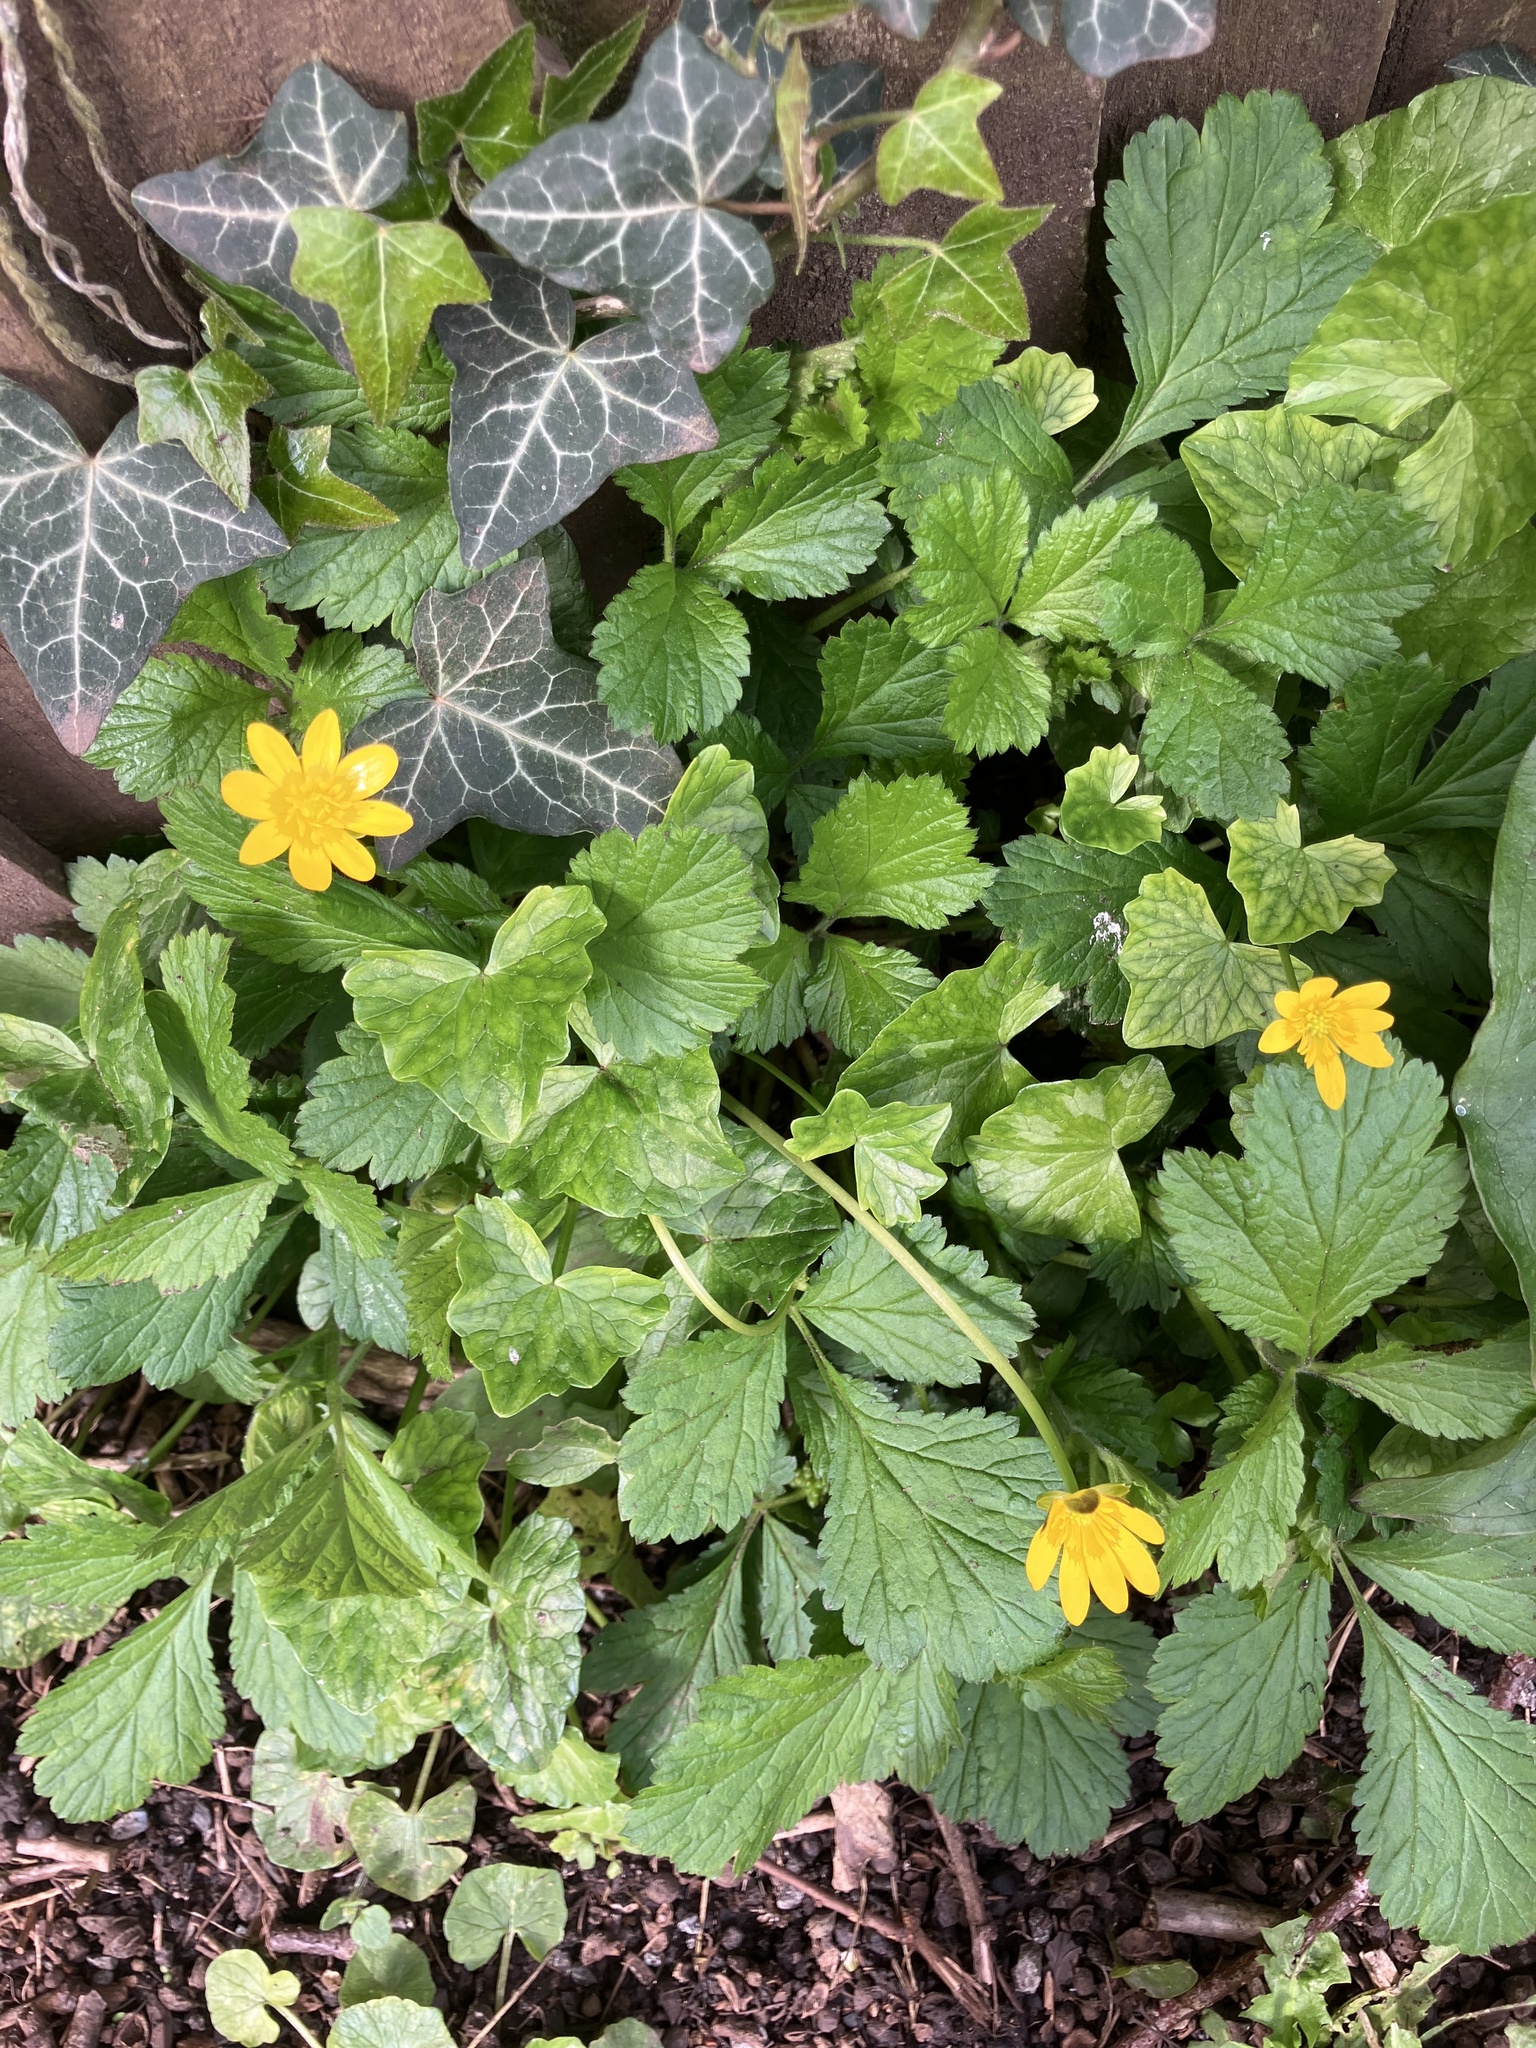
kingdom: Plantae
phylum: Tracheophyta
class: Magnoliopsida
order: Ranunculales
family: Ranunculaceae
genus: Ficaria
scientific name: Ficaria verna
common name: Lesser celandine
